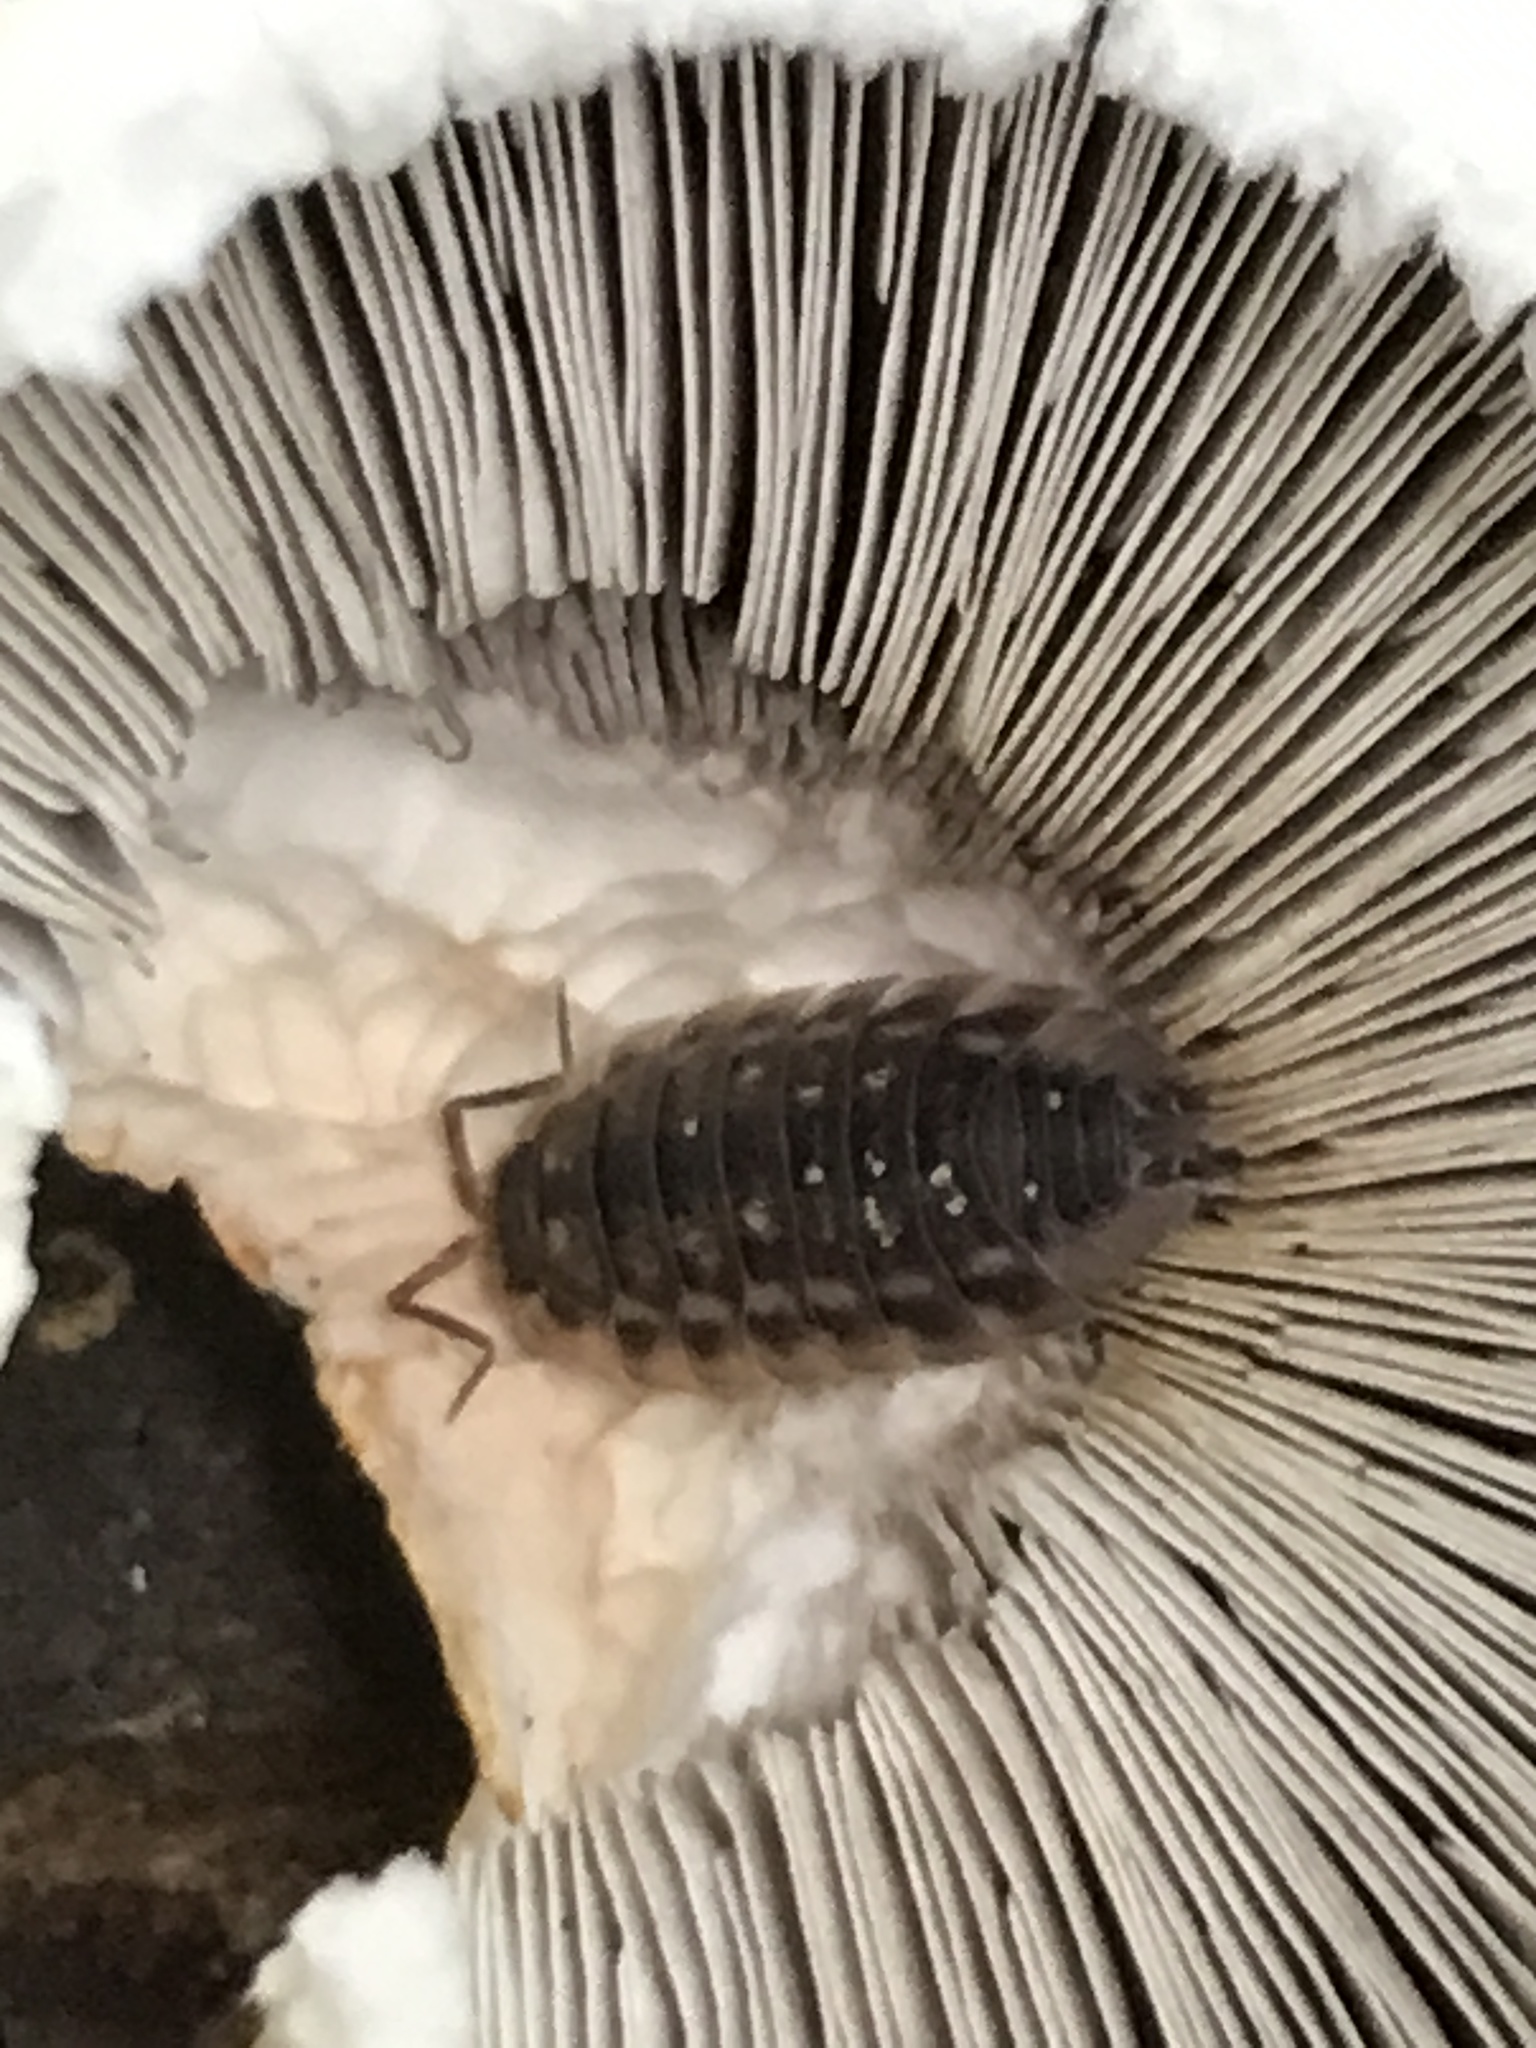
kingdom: Animalia
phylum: Arthropoda
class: Malacostraca
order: Isopoda
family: Oniscidae
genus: Oniscus
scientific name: Oniscus asellus
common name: Common shiny woodlouse
